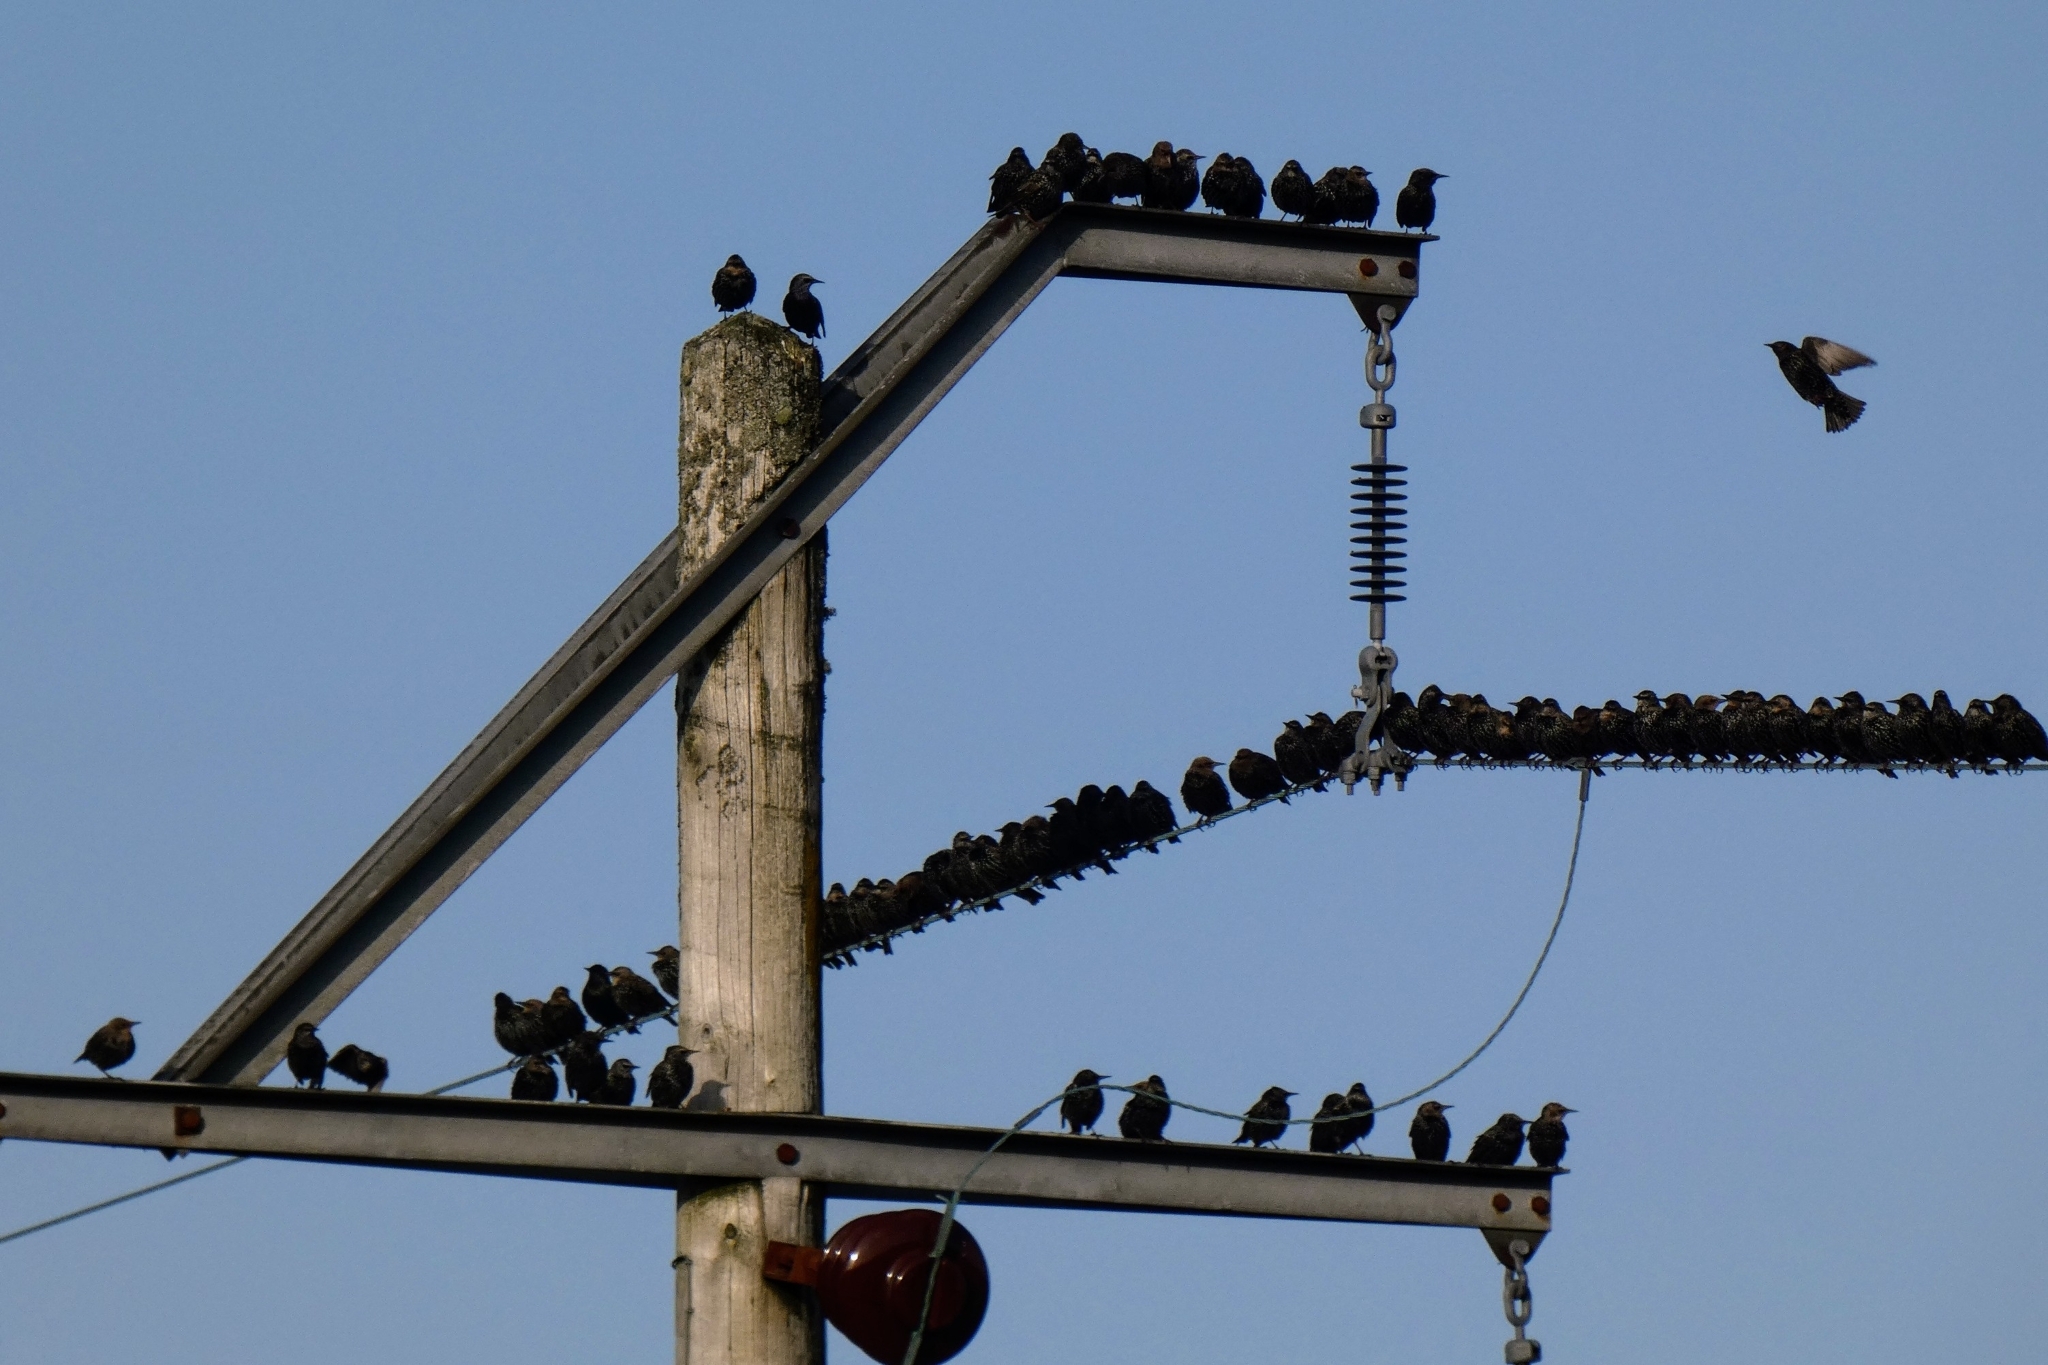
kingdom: Animalia
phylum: Chordata
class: Aves
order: Passeriformes
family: Sturnidae
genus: Sturnus
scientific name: Sturnus vulgaris
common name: Common starling
